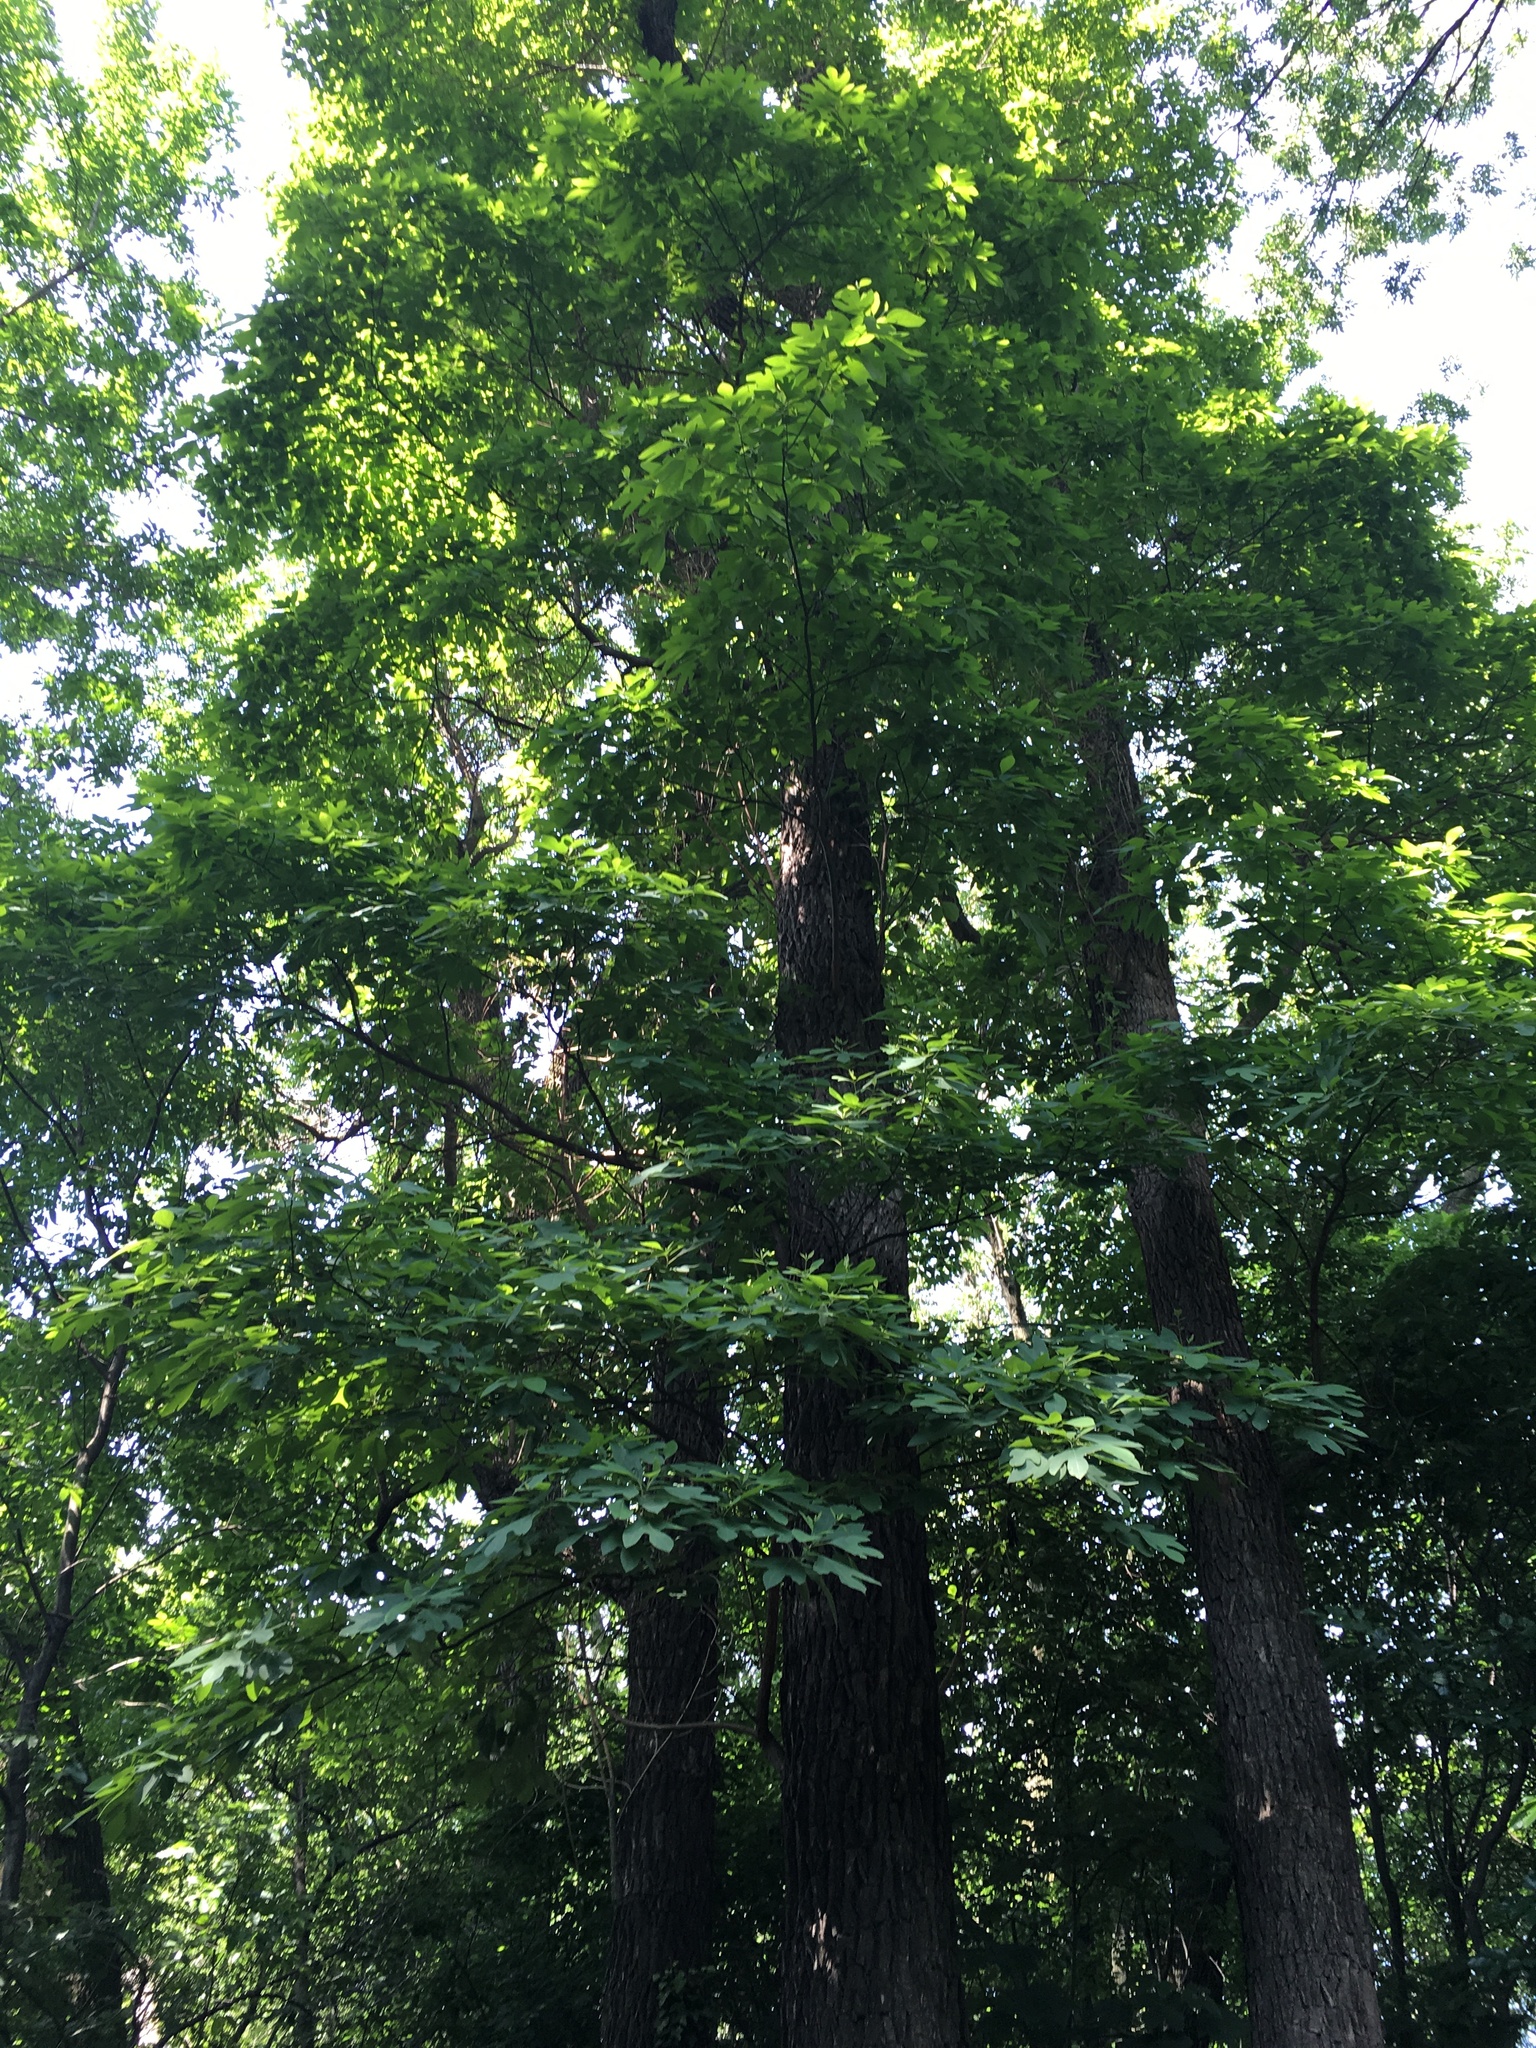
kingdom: Plantae
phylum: Tracheophyta
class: Magnoliopsida
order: Laurales
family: Lauraceae
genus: Sassafras
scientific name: Sassafras albidum
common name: Sassafras
